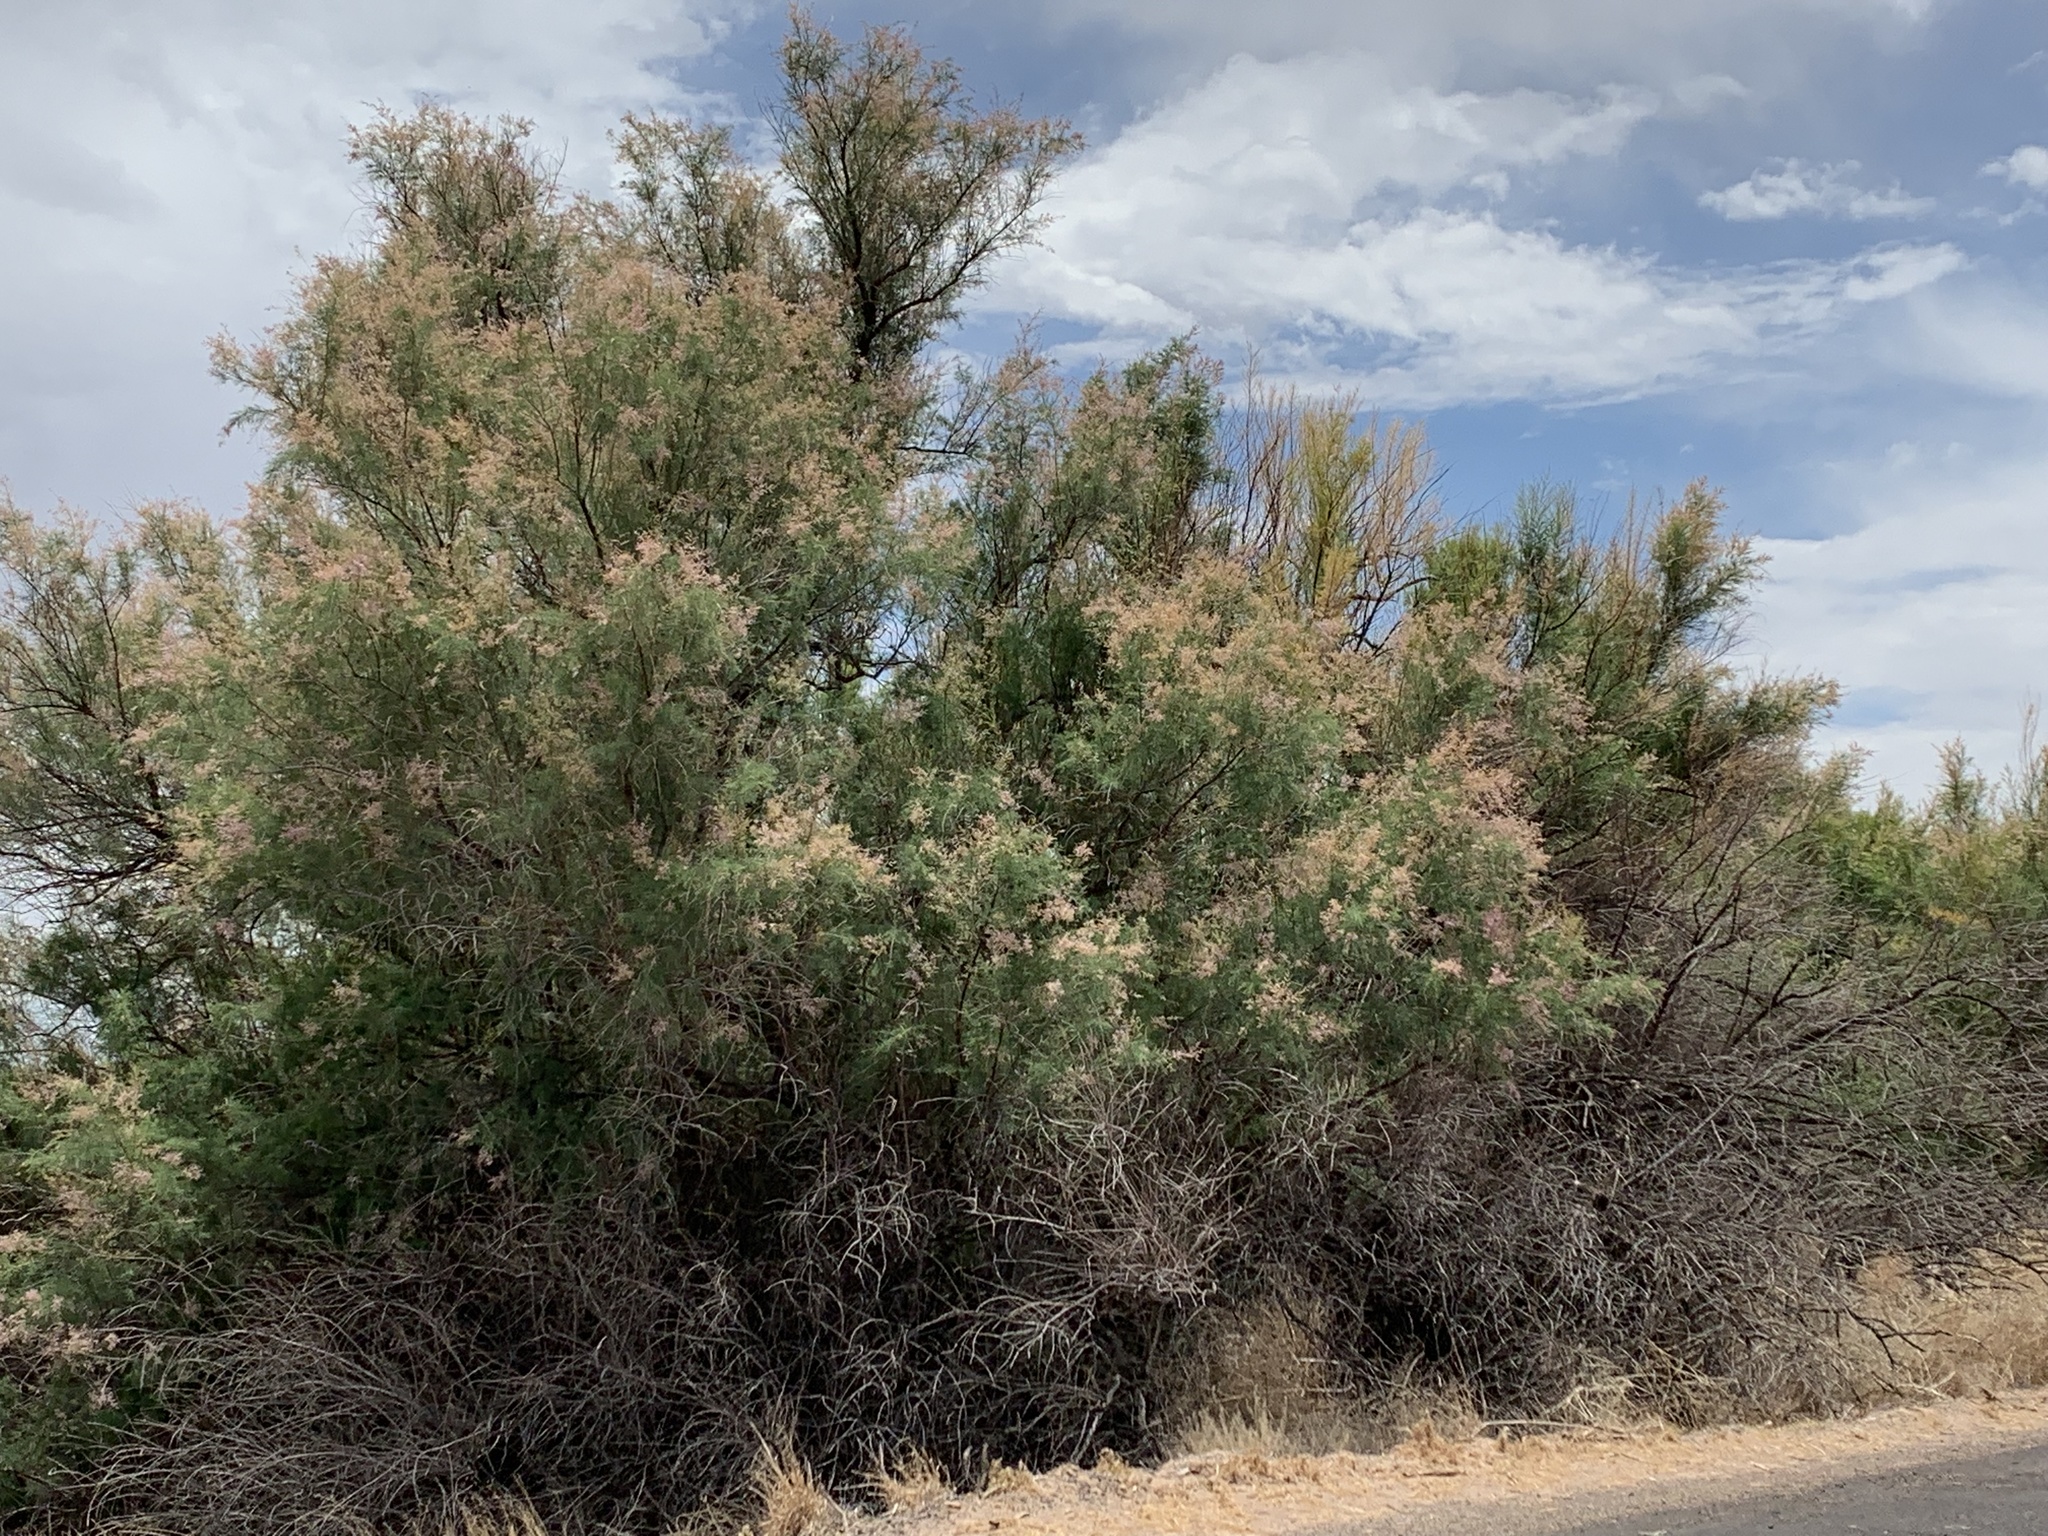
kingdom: Plantae
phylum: Tracheophyta
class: Magnoliopsida
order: Caryophyllales
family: Tamaricaceae
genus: Tamarix
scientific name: Tamarix
